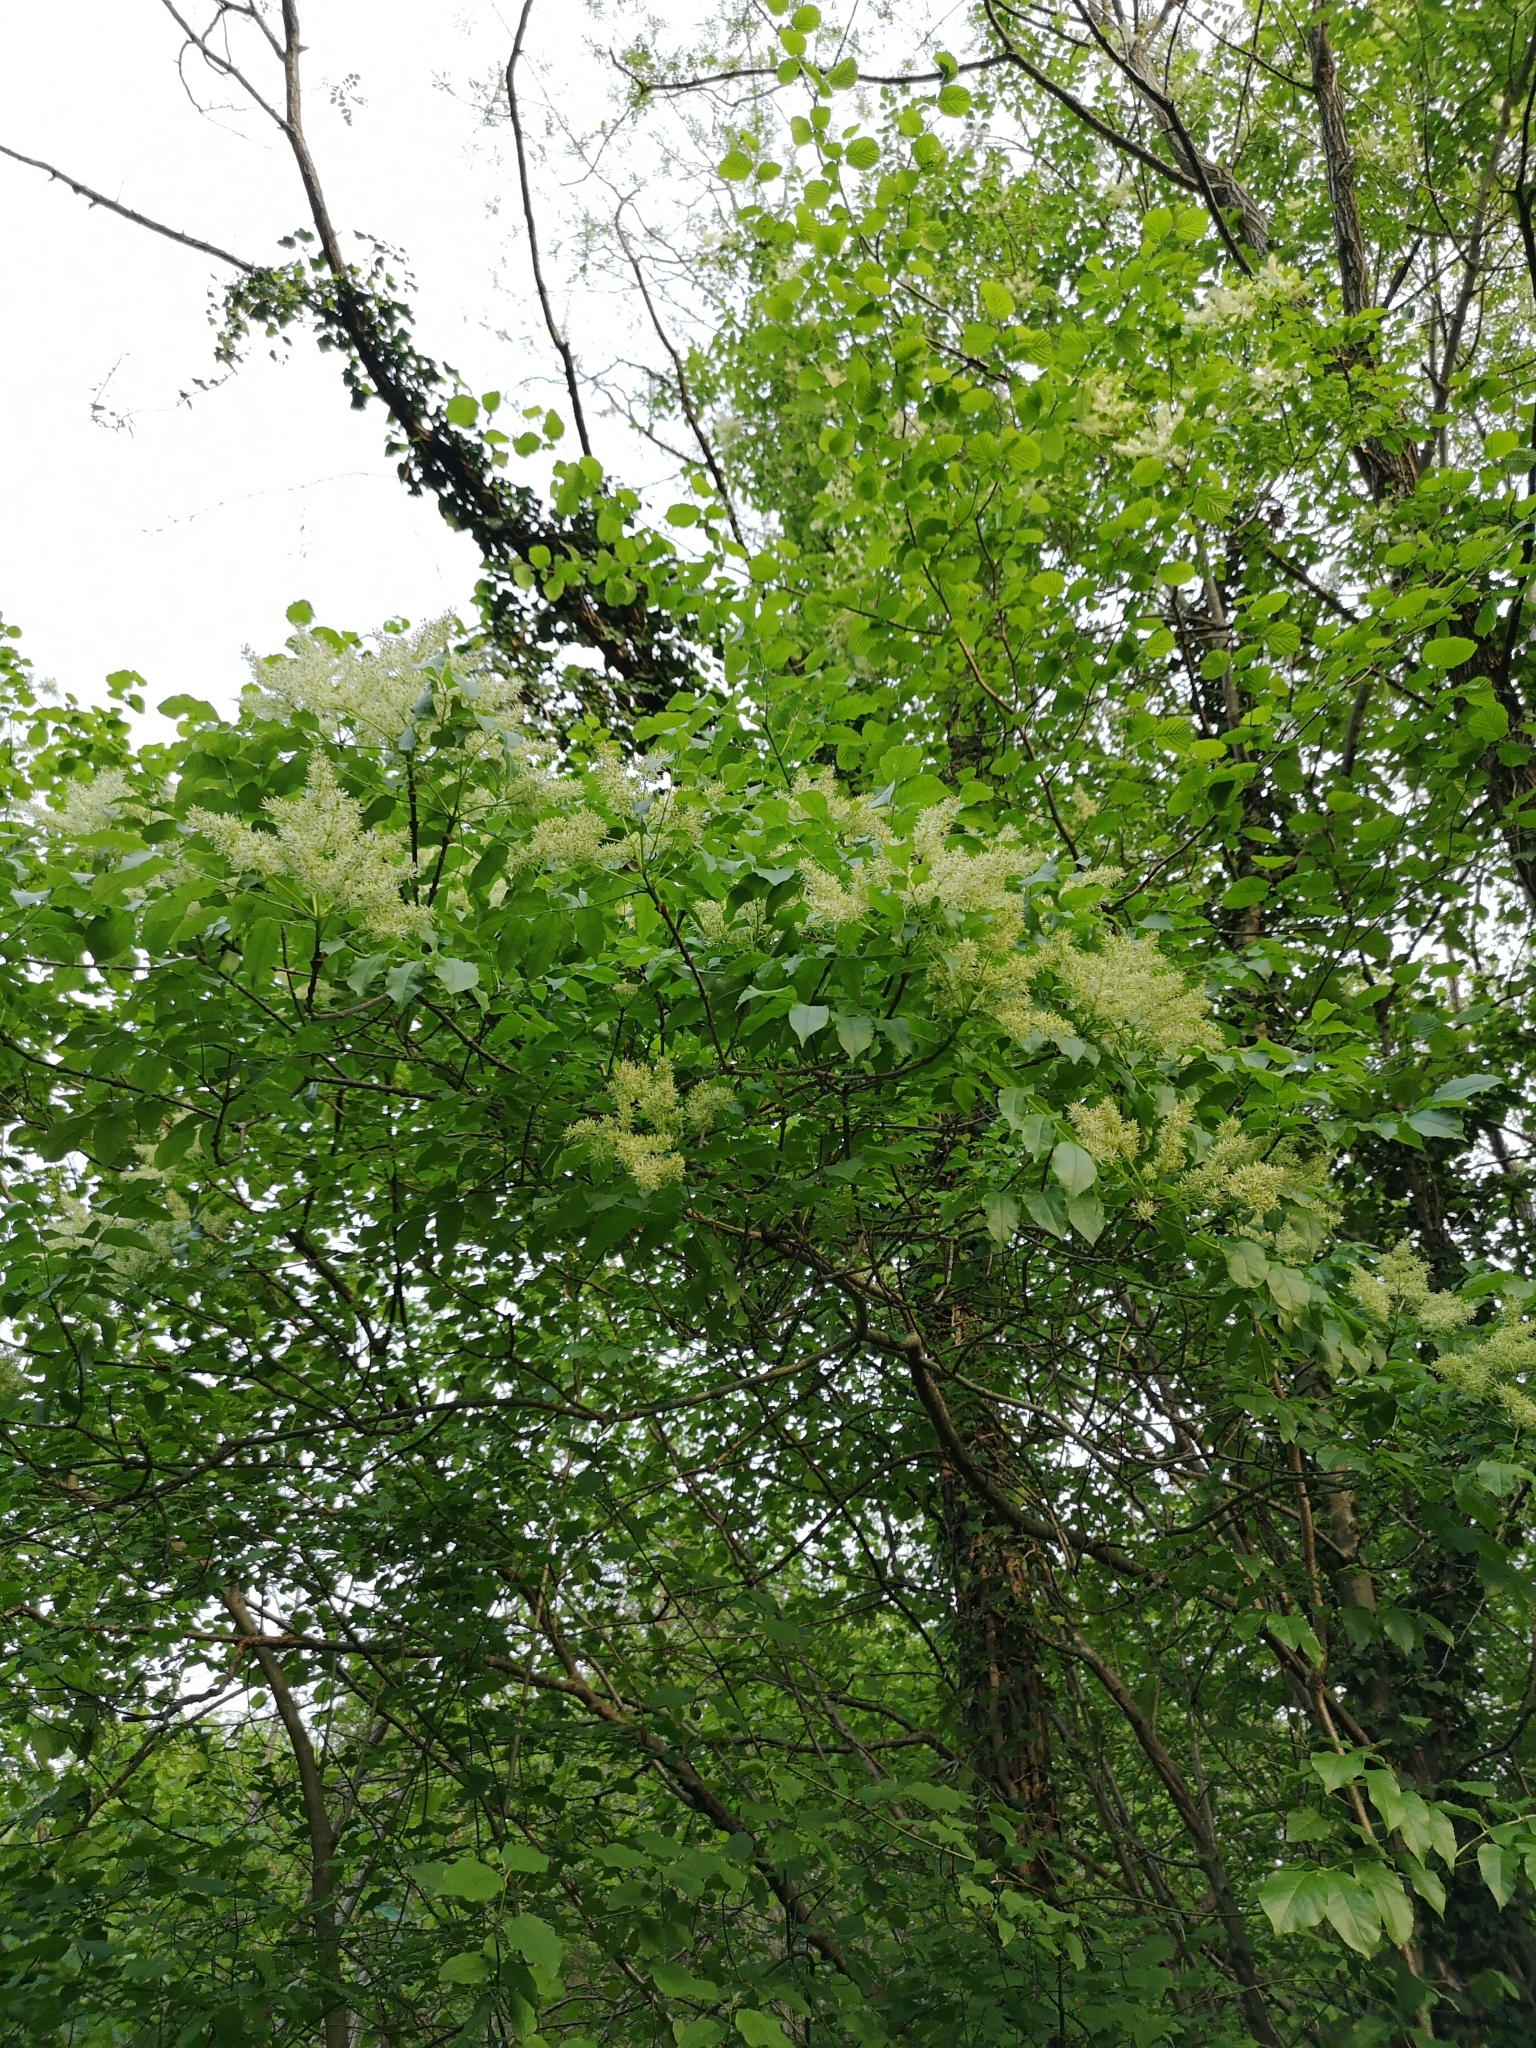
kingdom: Plantae
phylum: Tracheophyta
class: Magnoliopsida
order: Lamiales
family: Oleaceae
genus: Fraxinus
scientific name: Fraxinus ornus
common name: Manna ash
